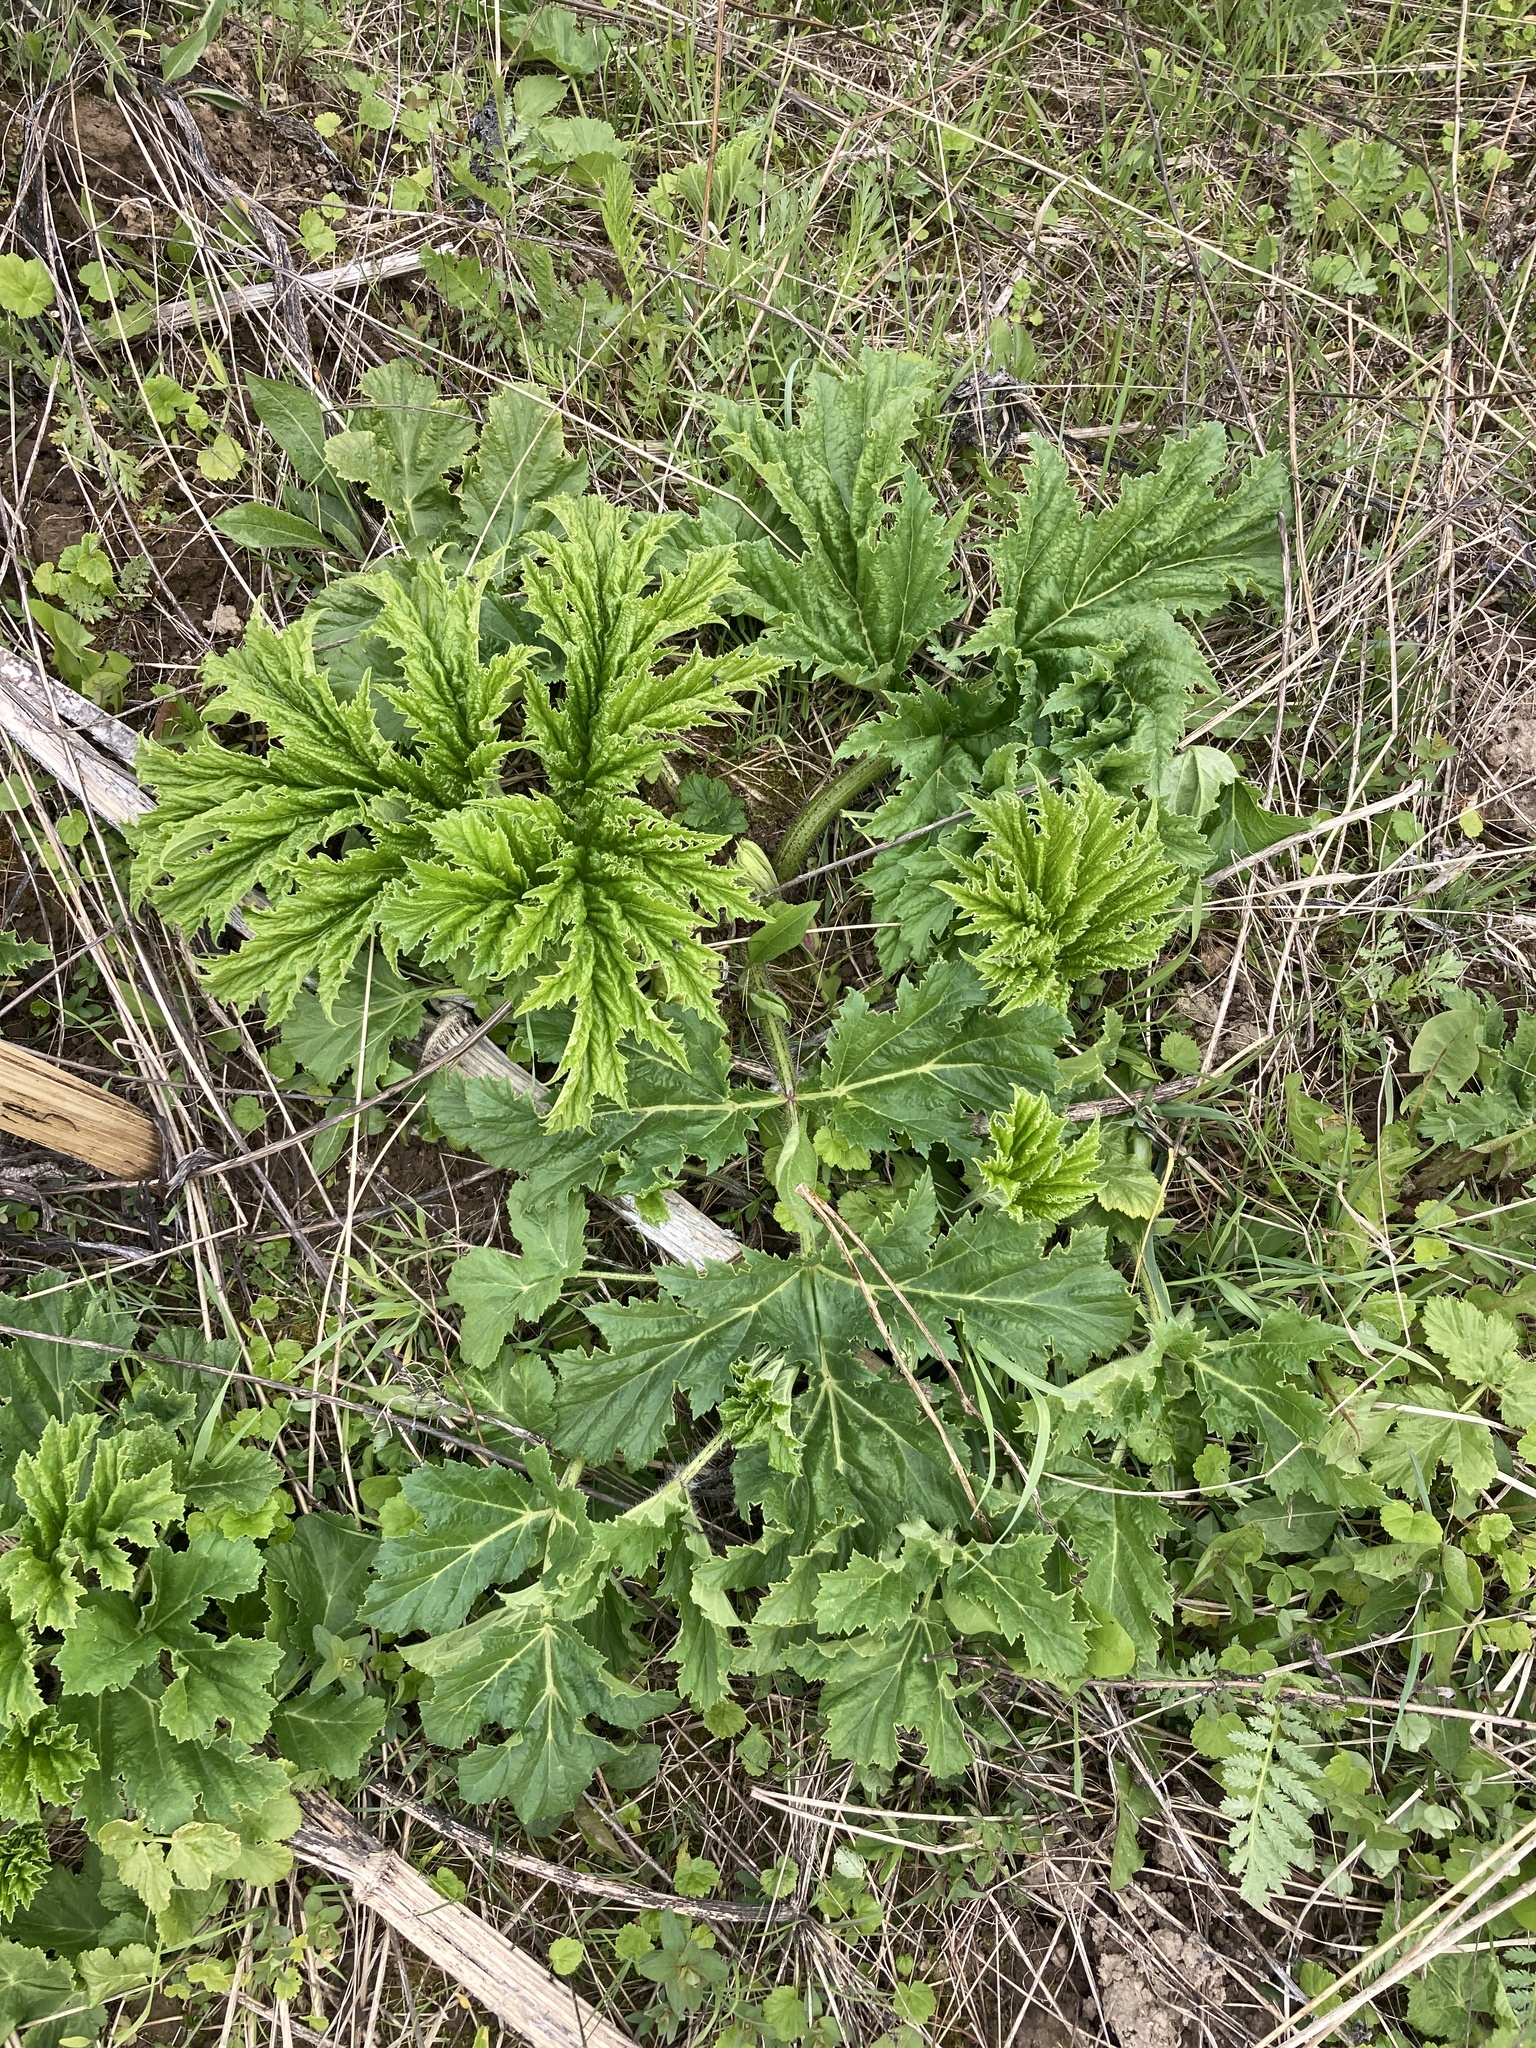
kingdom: Plantae
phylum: Tracheophyta
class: Magnoliopsida
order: Apiales
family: Apiaceae
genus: Heracleum
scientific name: Heracleum sosnowskyi
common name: Sosnowsky's hogweed
